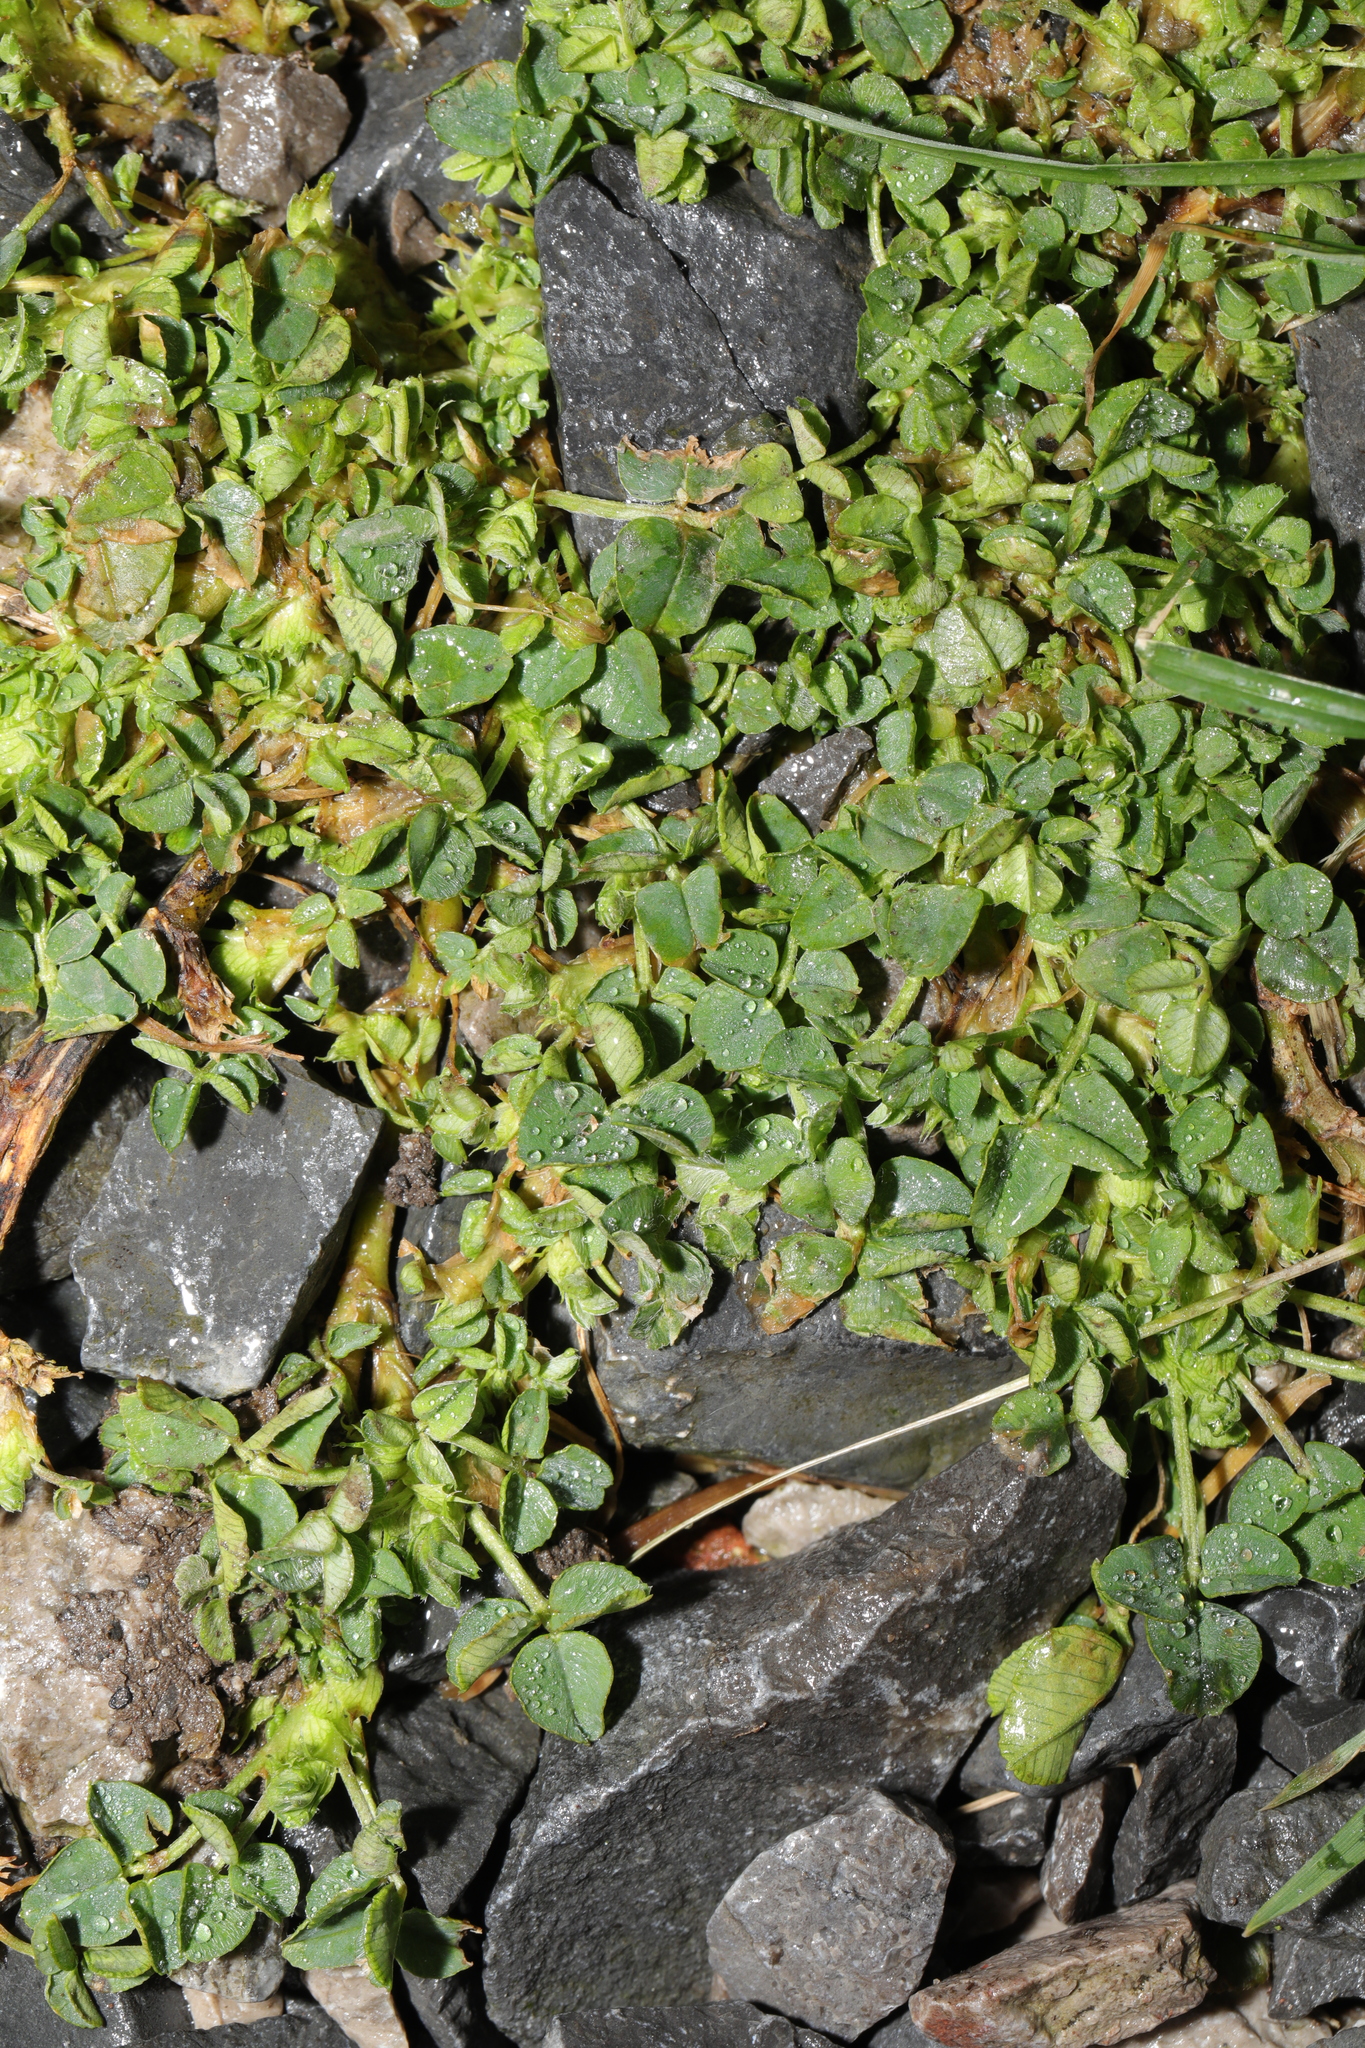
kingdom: Plantae
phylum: Tracheophyta
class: Magnoliopsida
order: Fabales
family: Fabaceae
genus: Medicago
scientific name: Medicago lupulina
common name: Black medick
